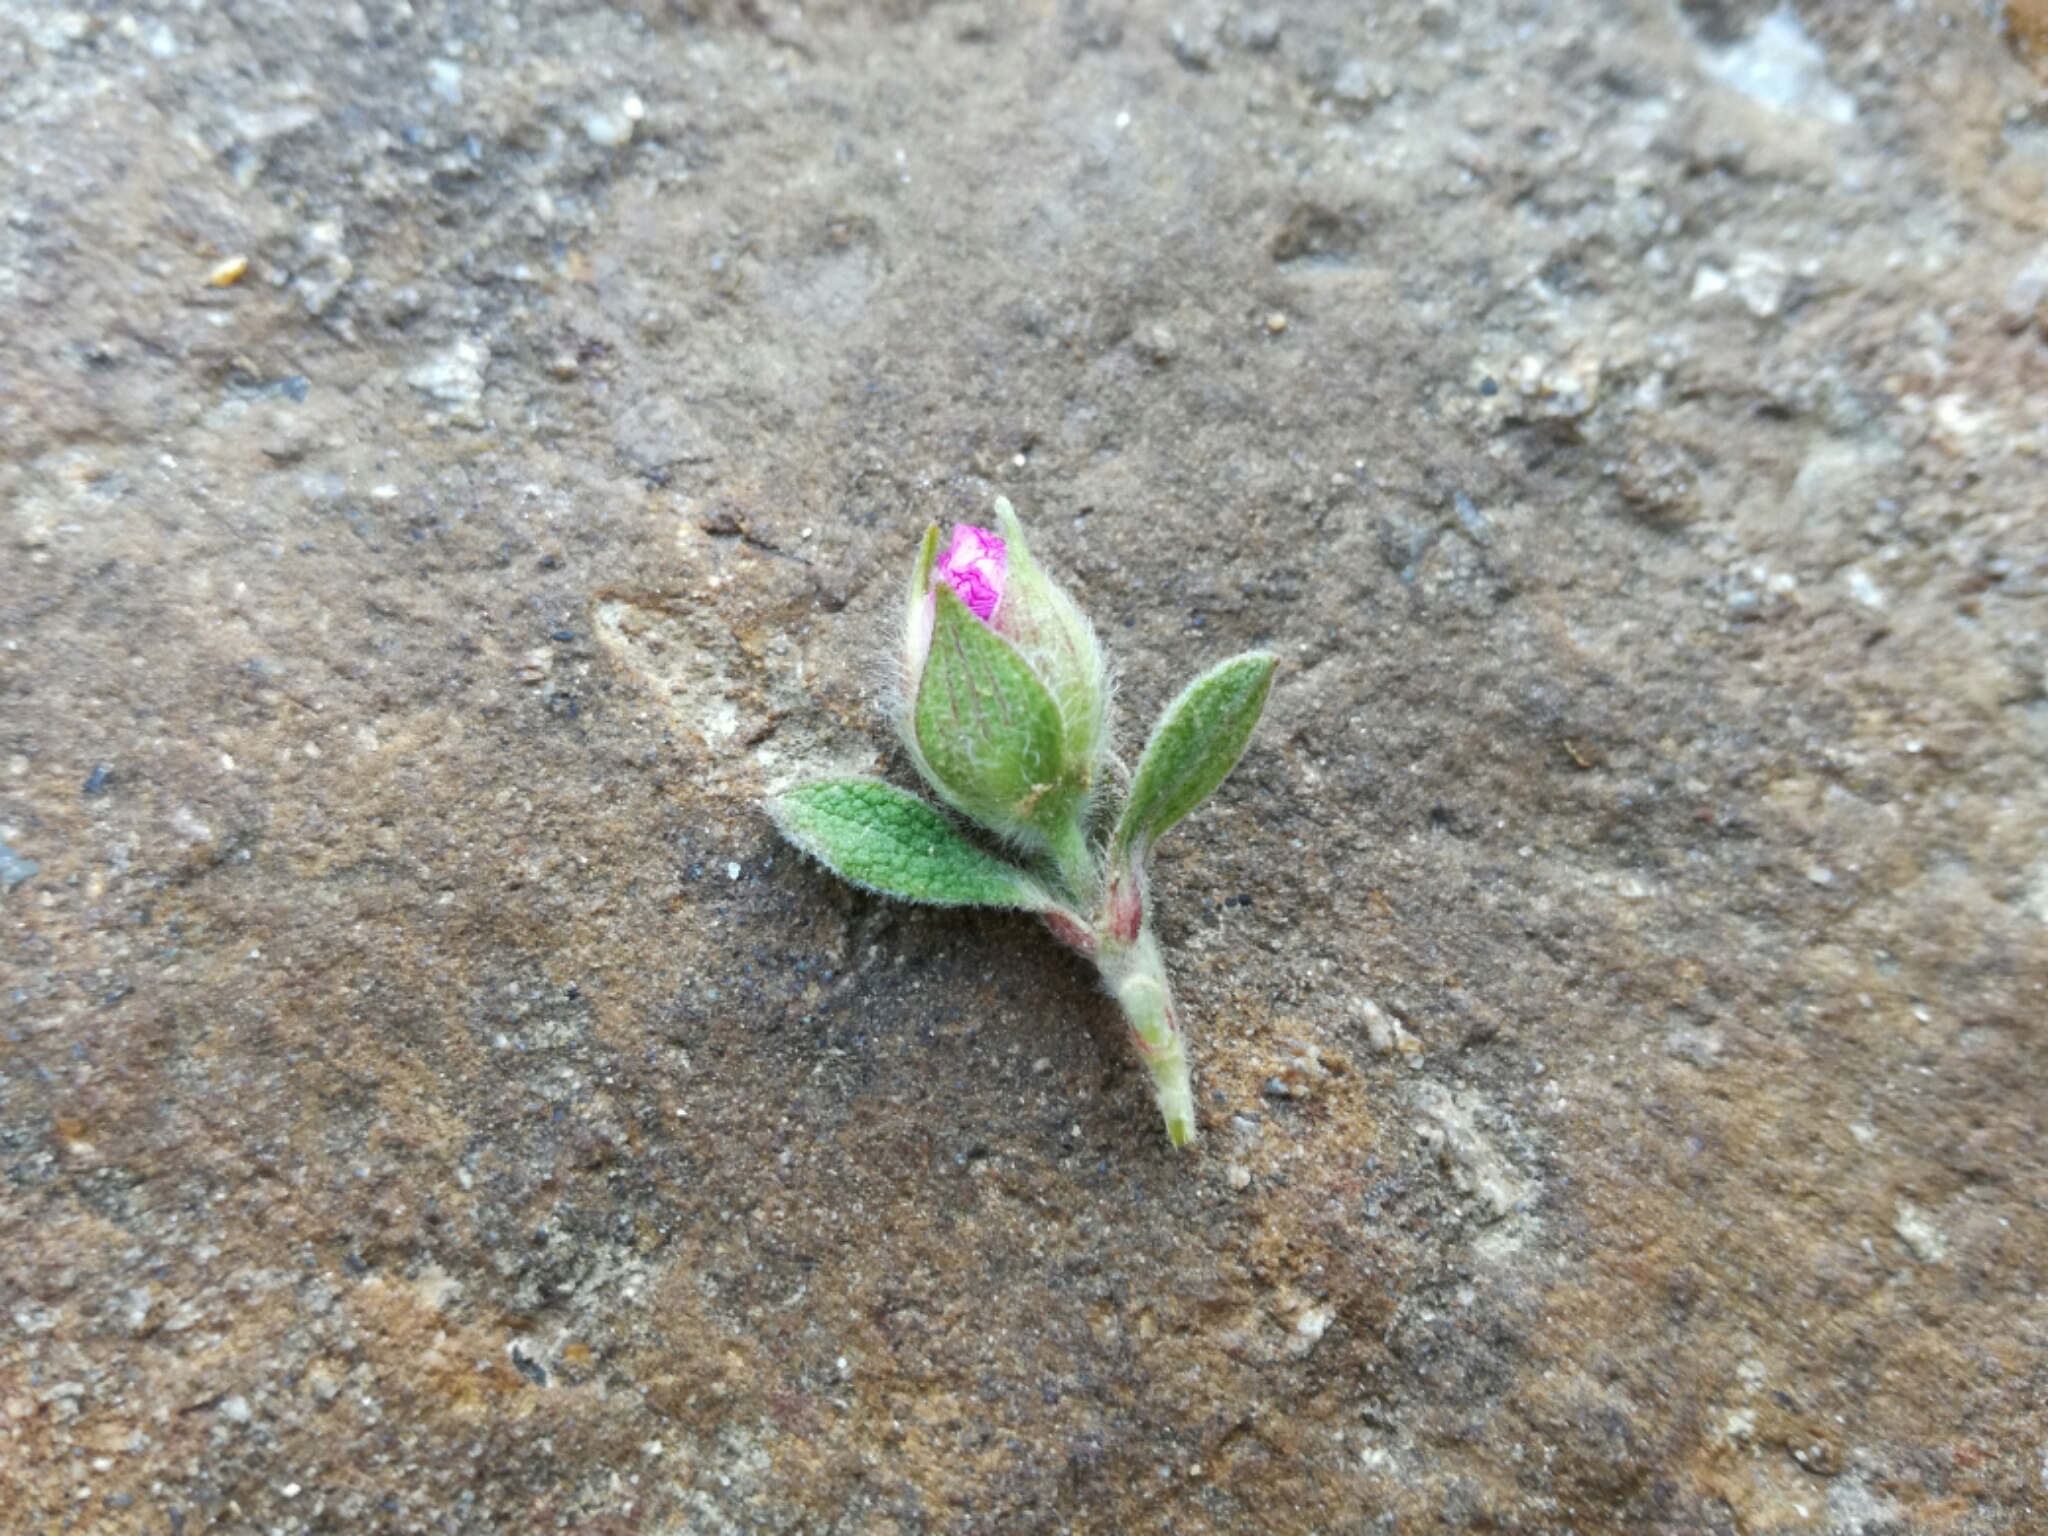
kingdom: Plantae
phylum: Tracheophyta
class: Magnoliopsida
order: Malvales
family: Cistaceae
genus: Cistus
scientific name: Cistus creticus
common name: Cretan rockrose
